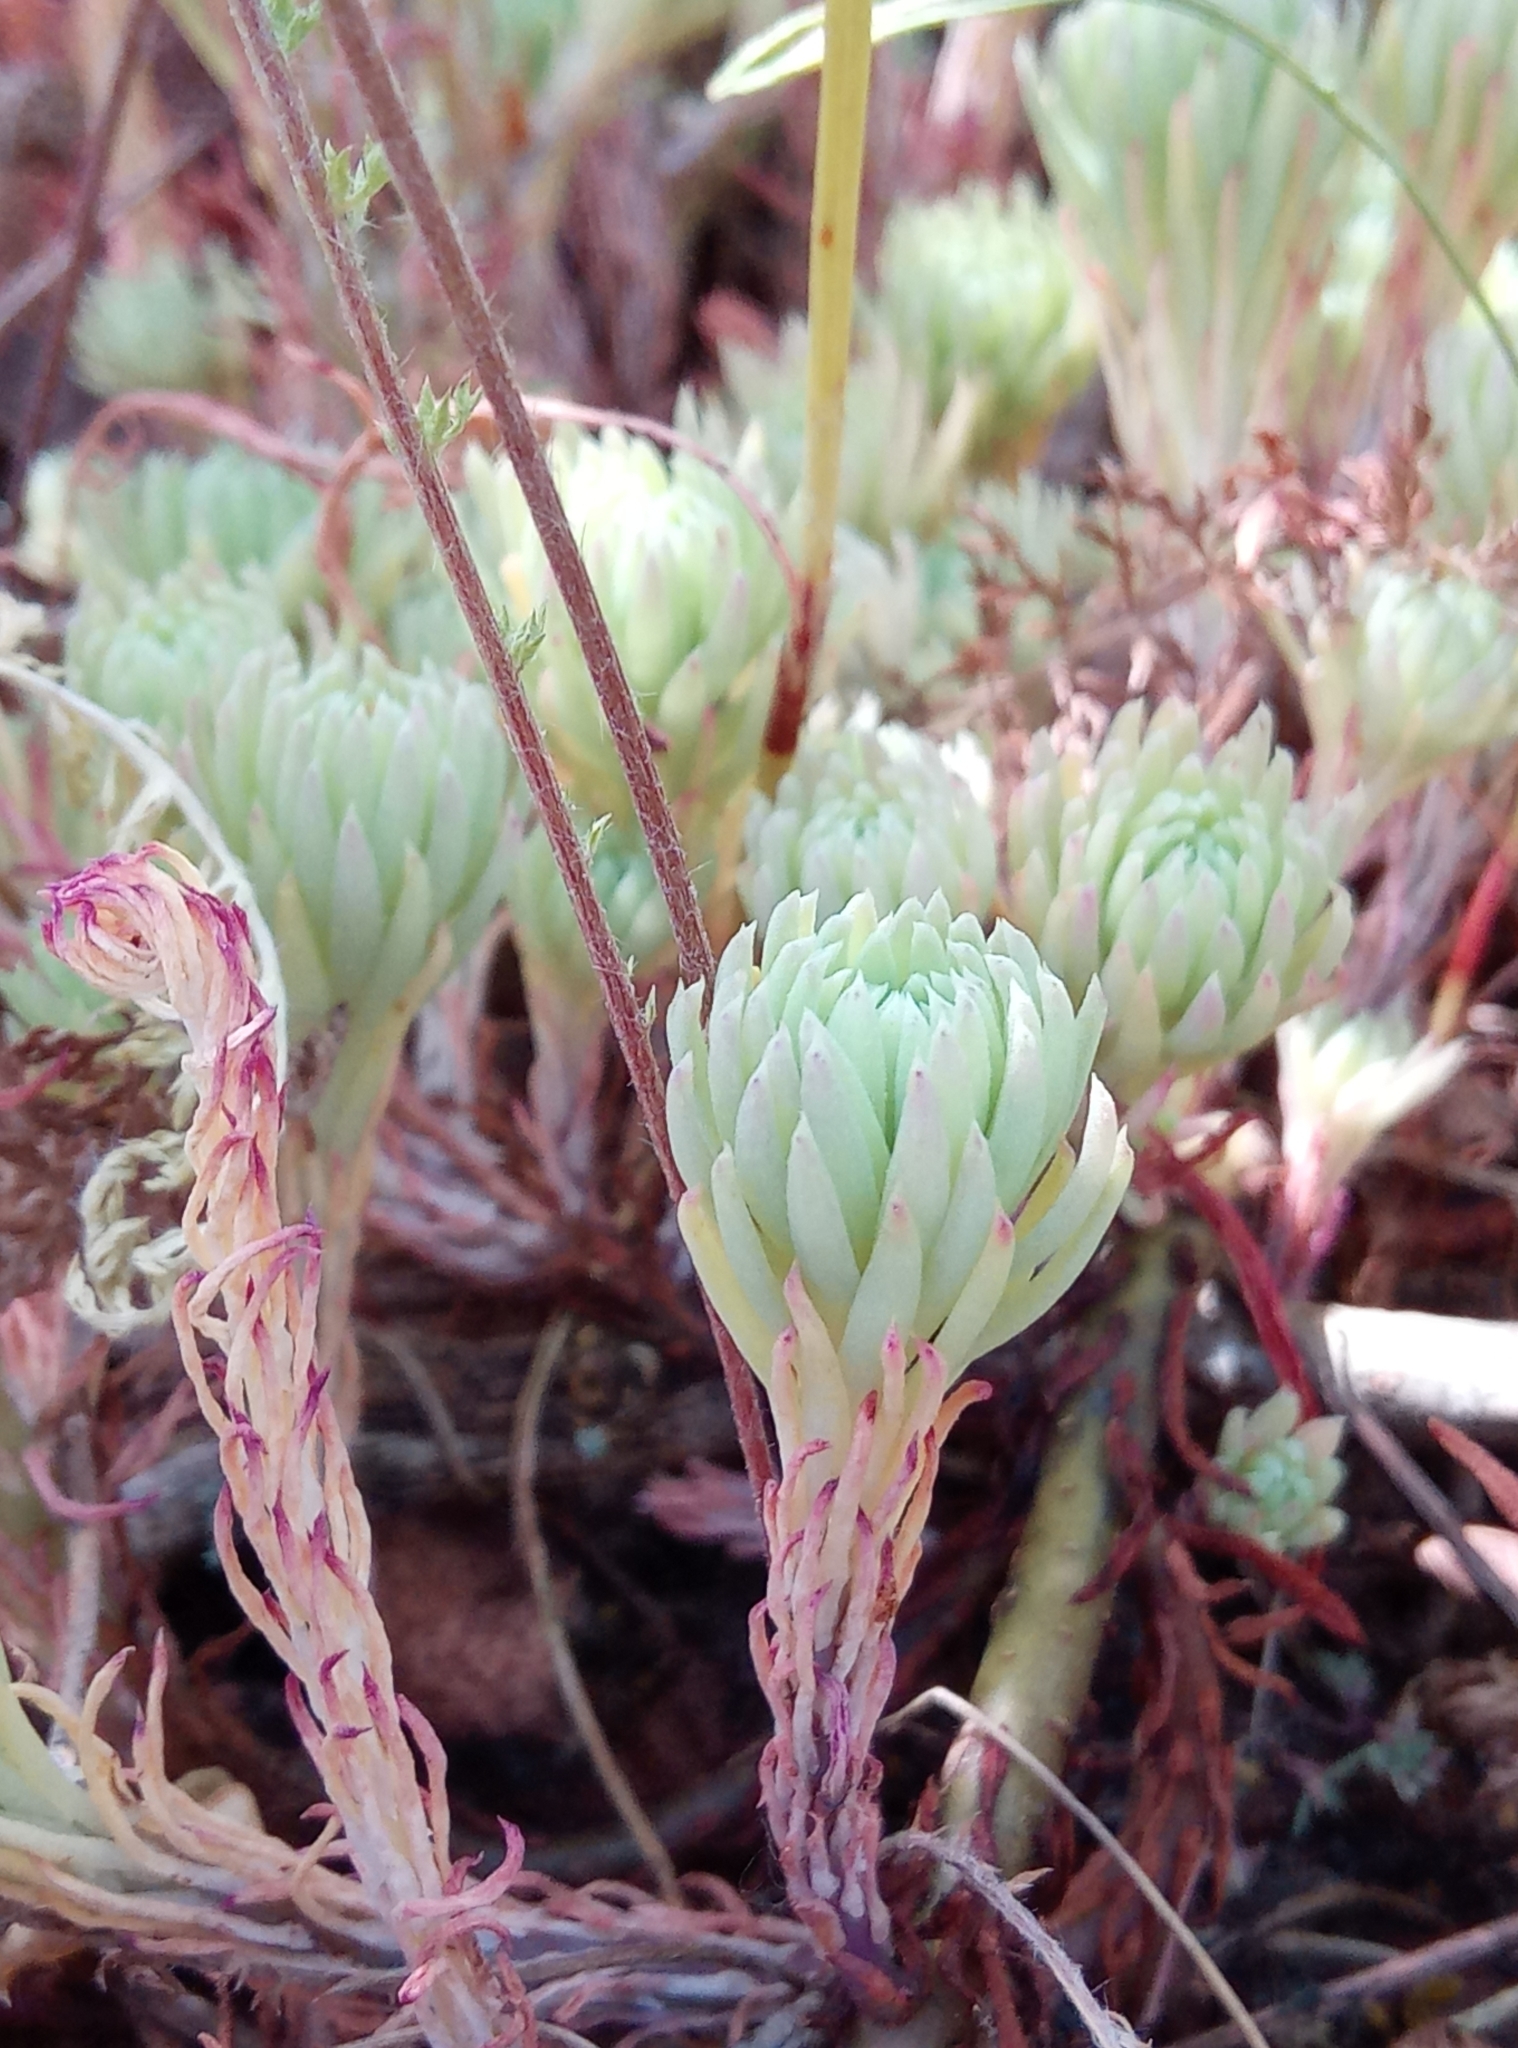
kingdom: Plantae
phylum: Tracheophyta
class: Magnoliopsida
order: Saxifragales
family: Crassulaceae
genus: Petrosedum
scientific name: Petrosedum forsterianum
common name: Forster's stonecrop
